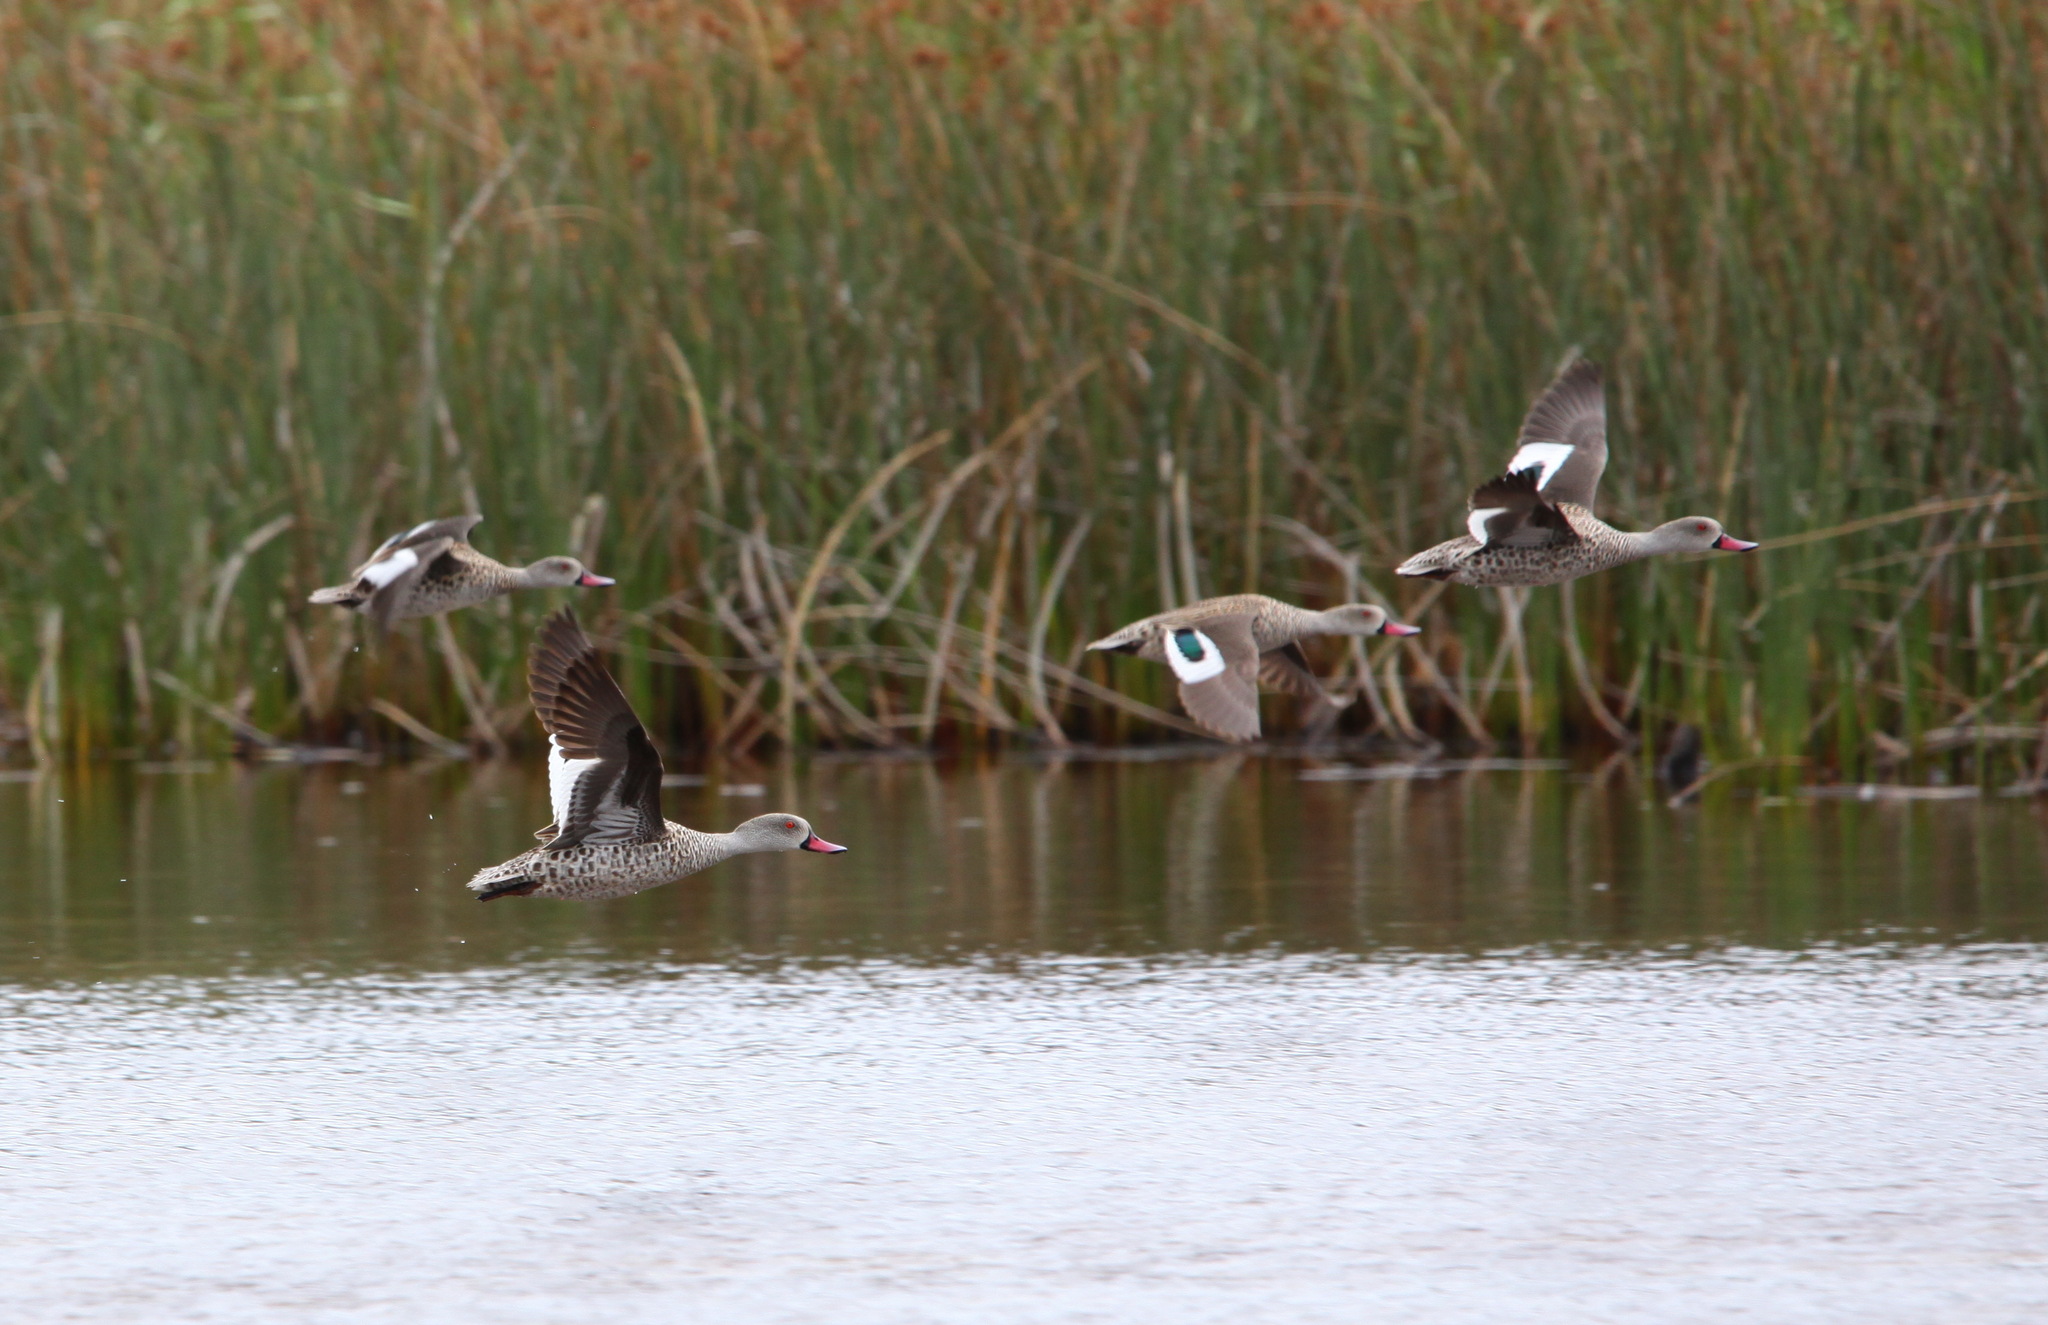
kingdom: Animalia
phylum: Chordata
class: Aves
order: Anseriformes
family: Anatidae
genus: Anas
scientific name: Anas capensis
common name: Cape teal
